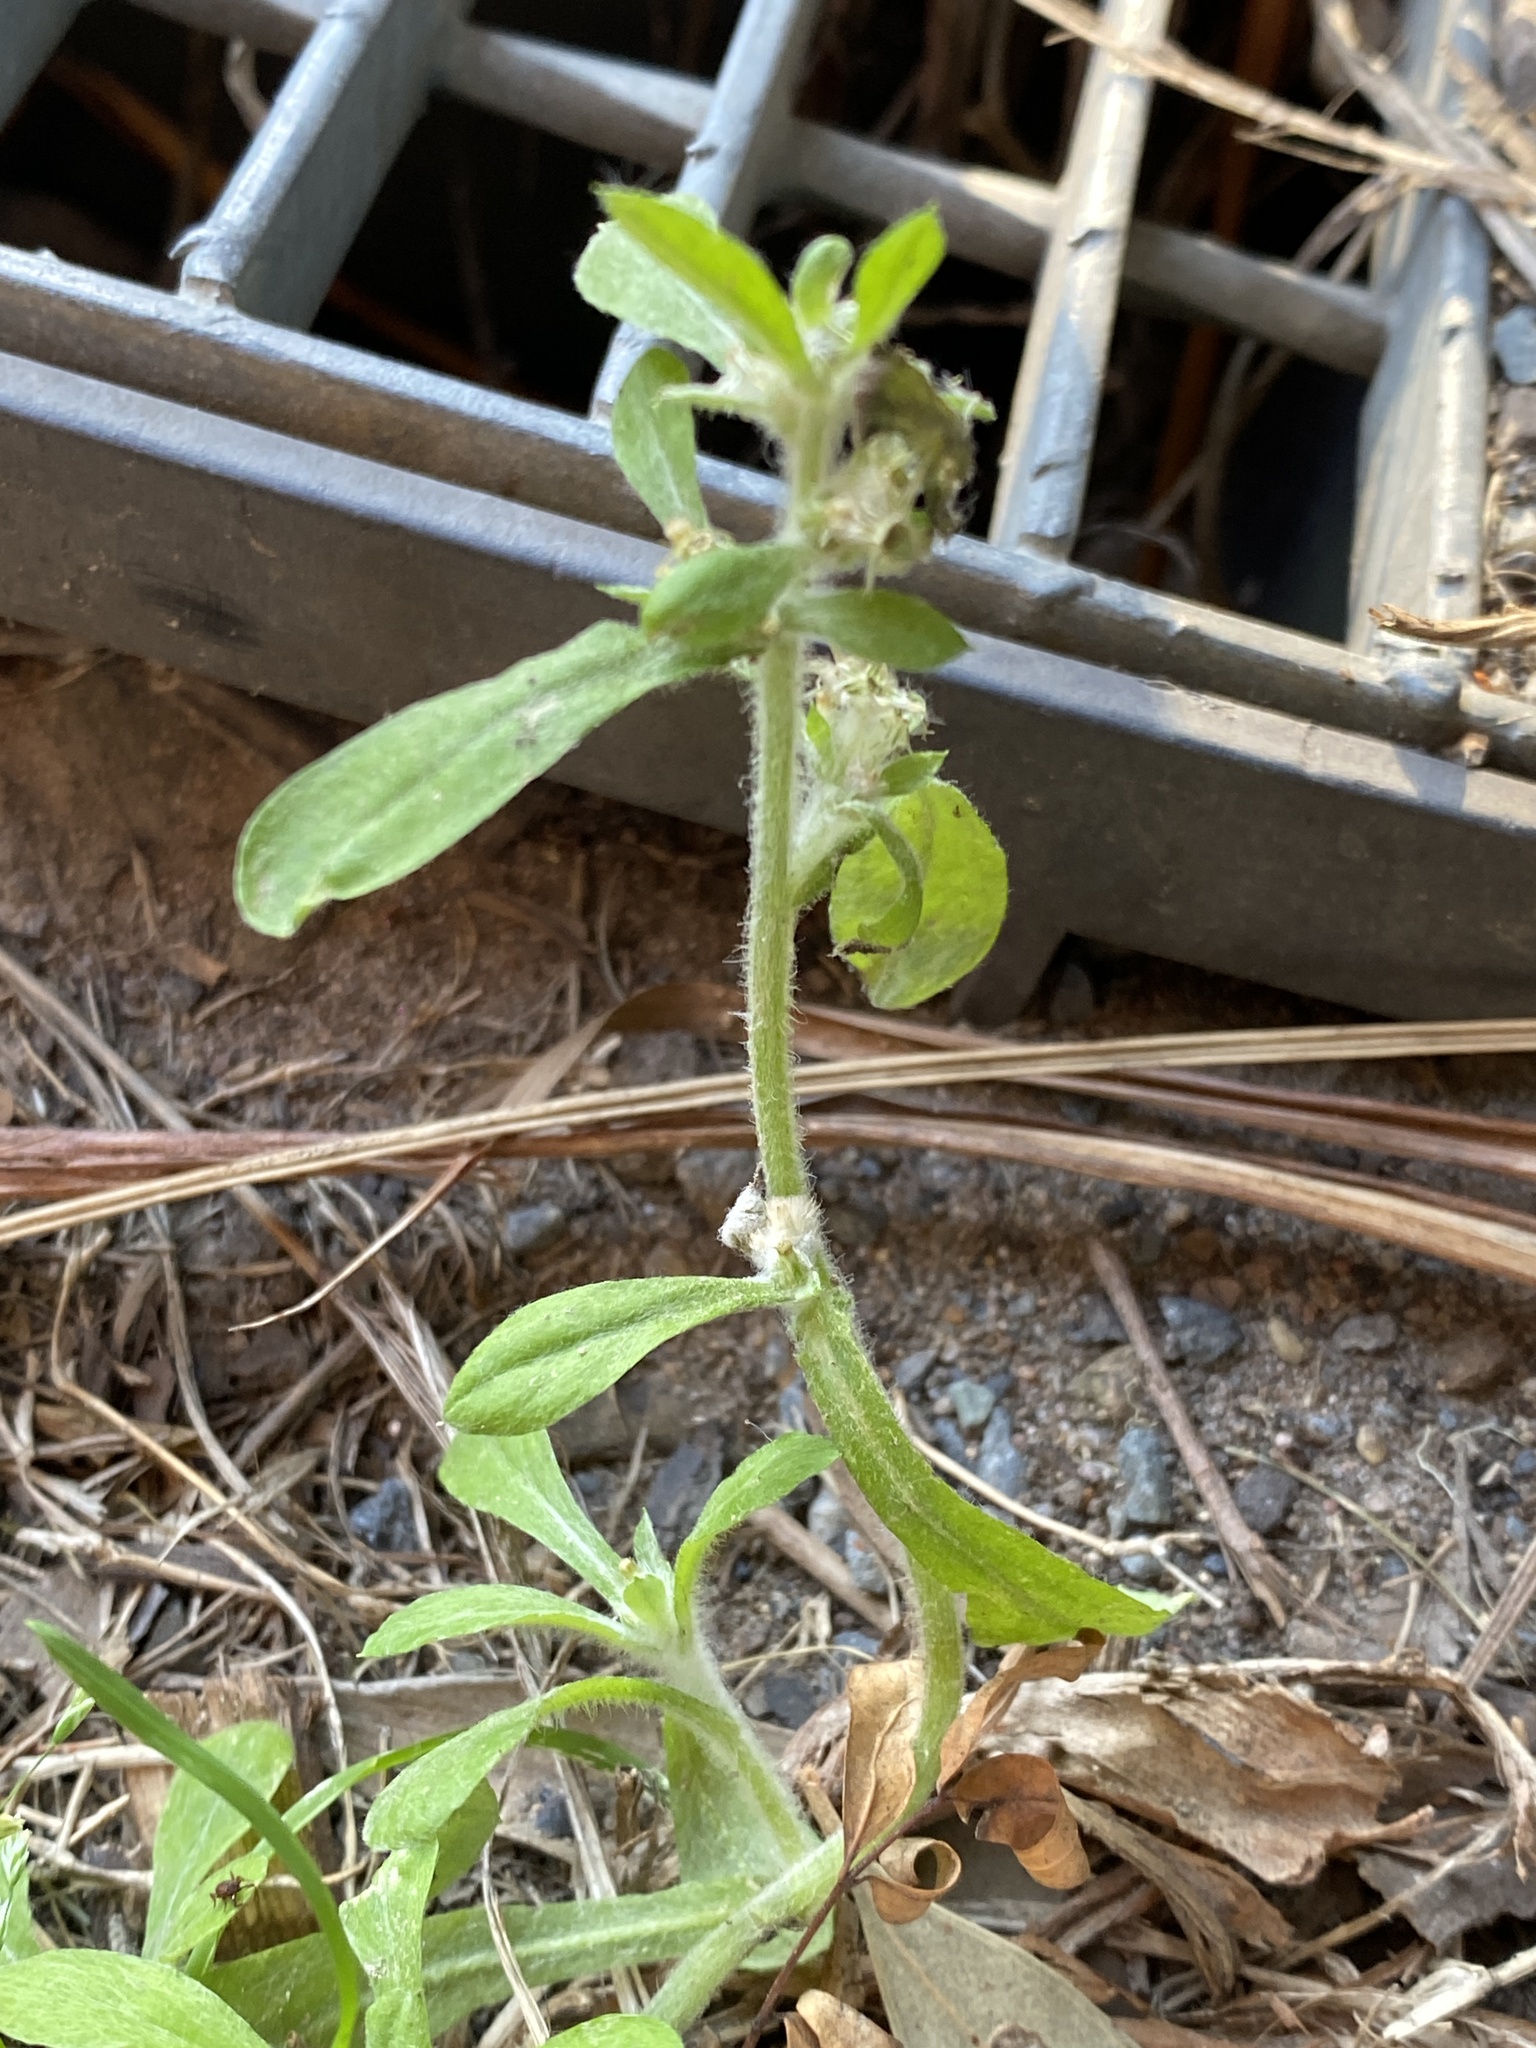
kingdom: Plantae
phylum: Tracheophyta
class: Magnoliopsida
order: Asterales
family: Asteraceae
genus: Gamochaeta
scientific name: Gamochaeta pensylvanica
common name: Pennsylvania everlasting
